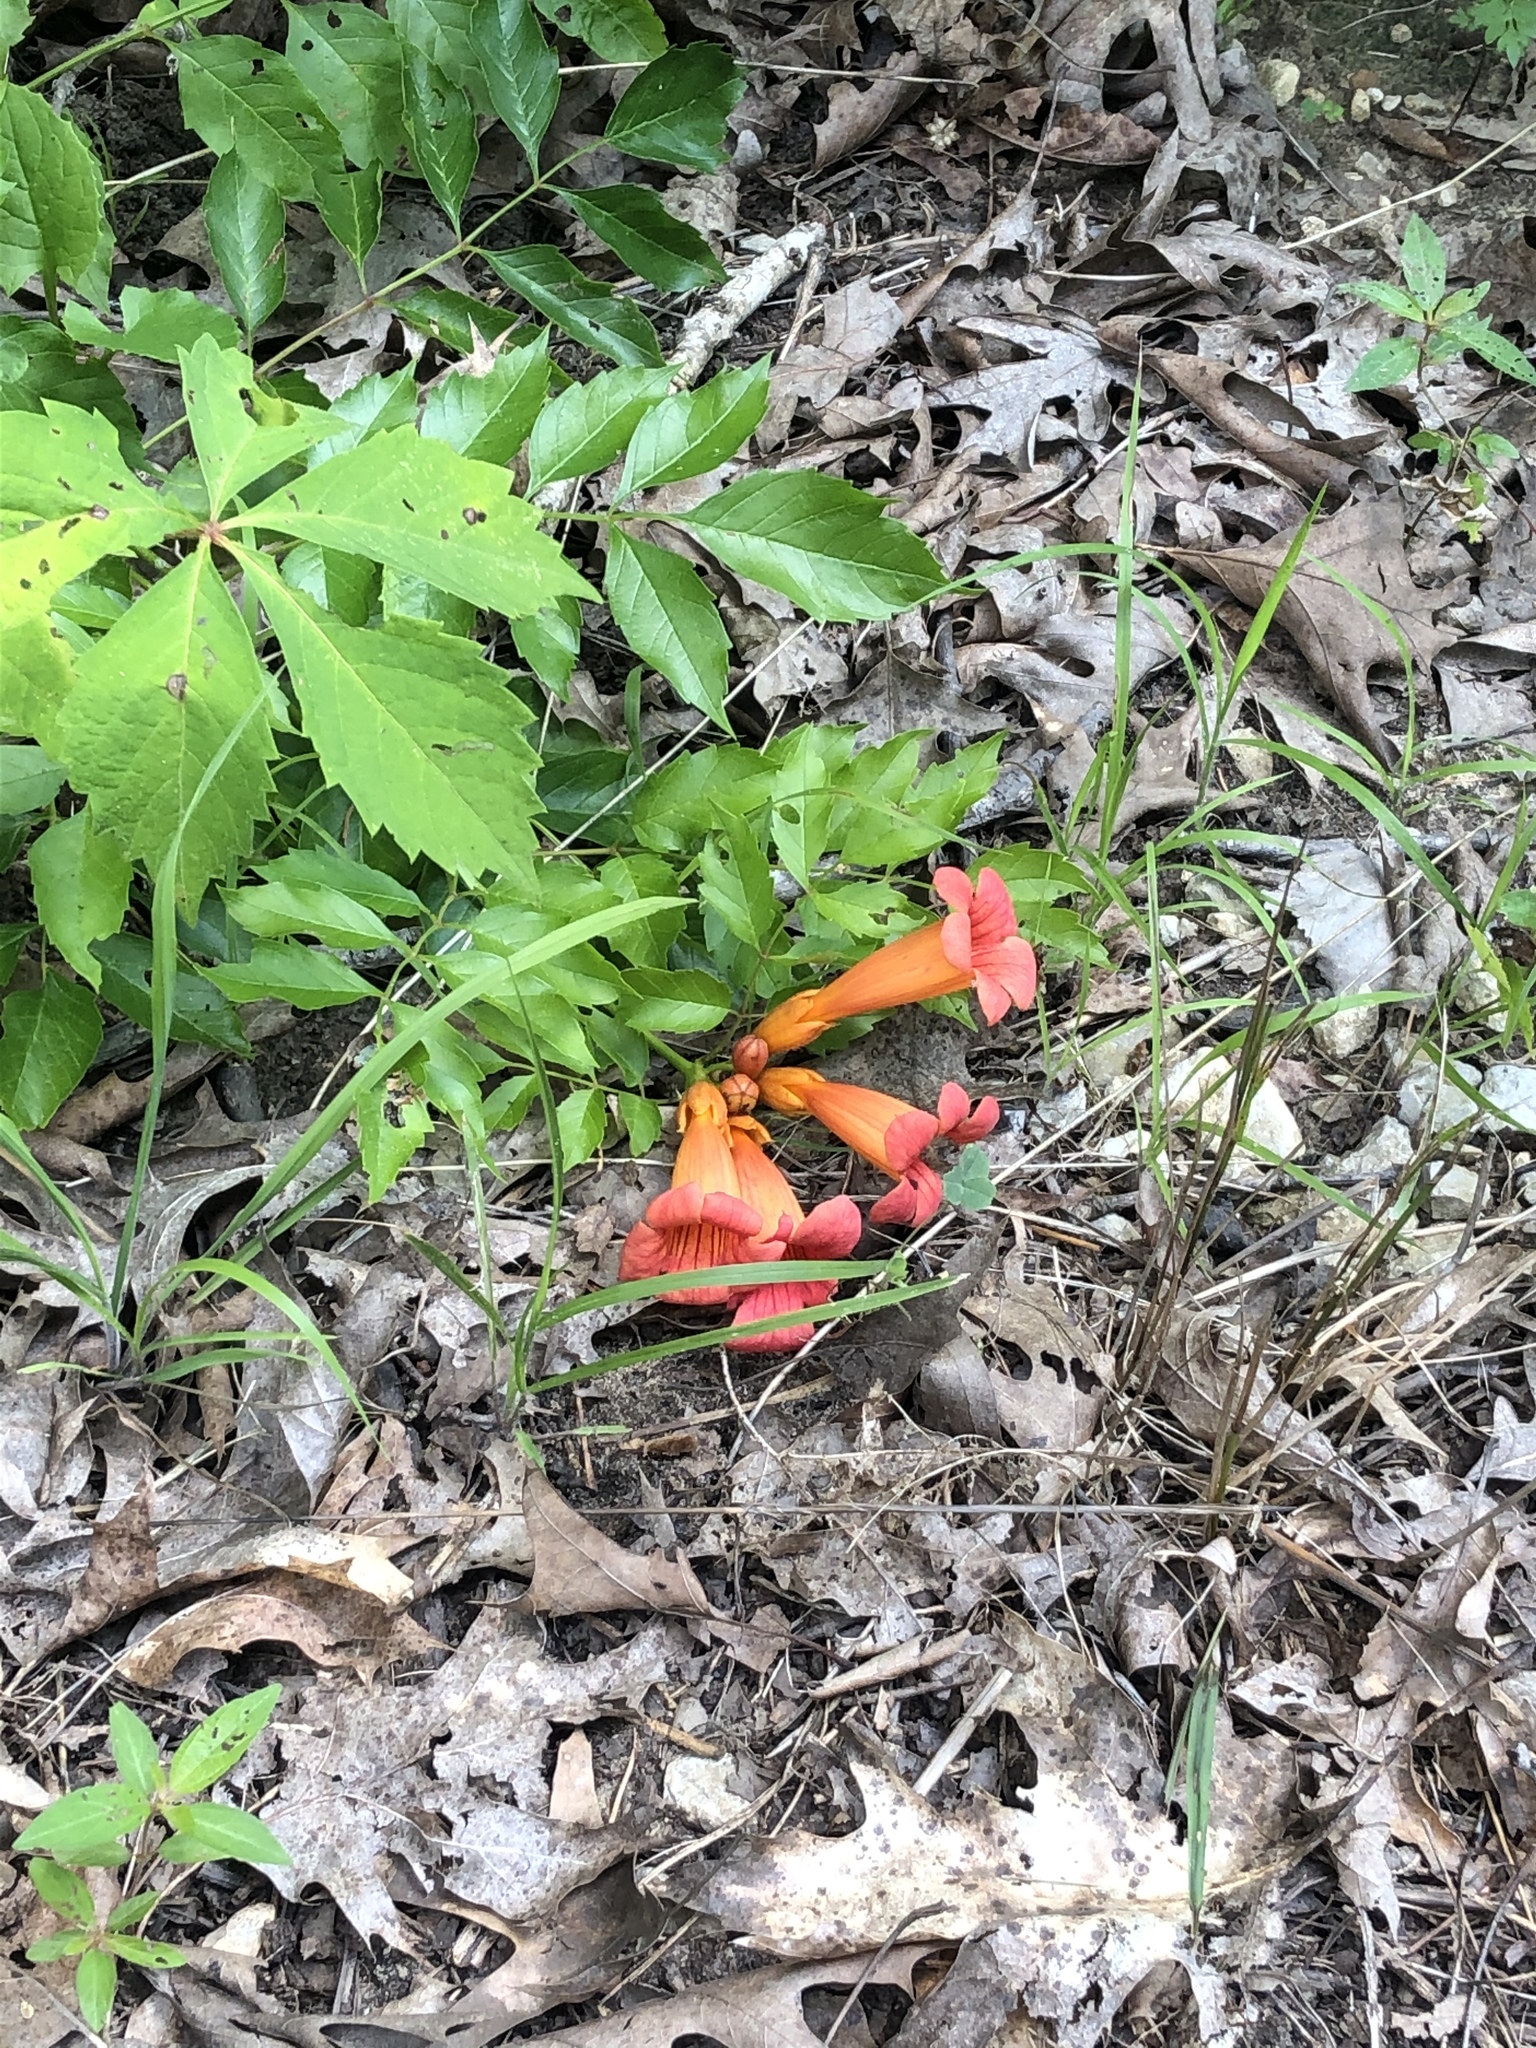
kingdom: Plantae
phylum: Tracheophyta
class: Magnoliopsida
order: Lamiales
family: Bignoniaceae
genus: Campsis
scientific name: Campsis radicans
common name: Trumpet-creeper
